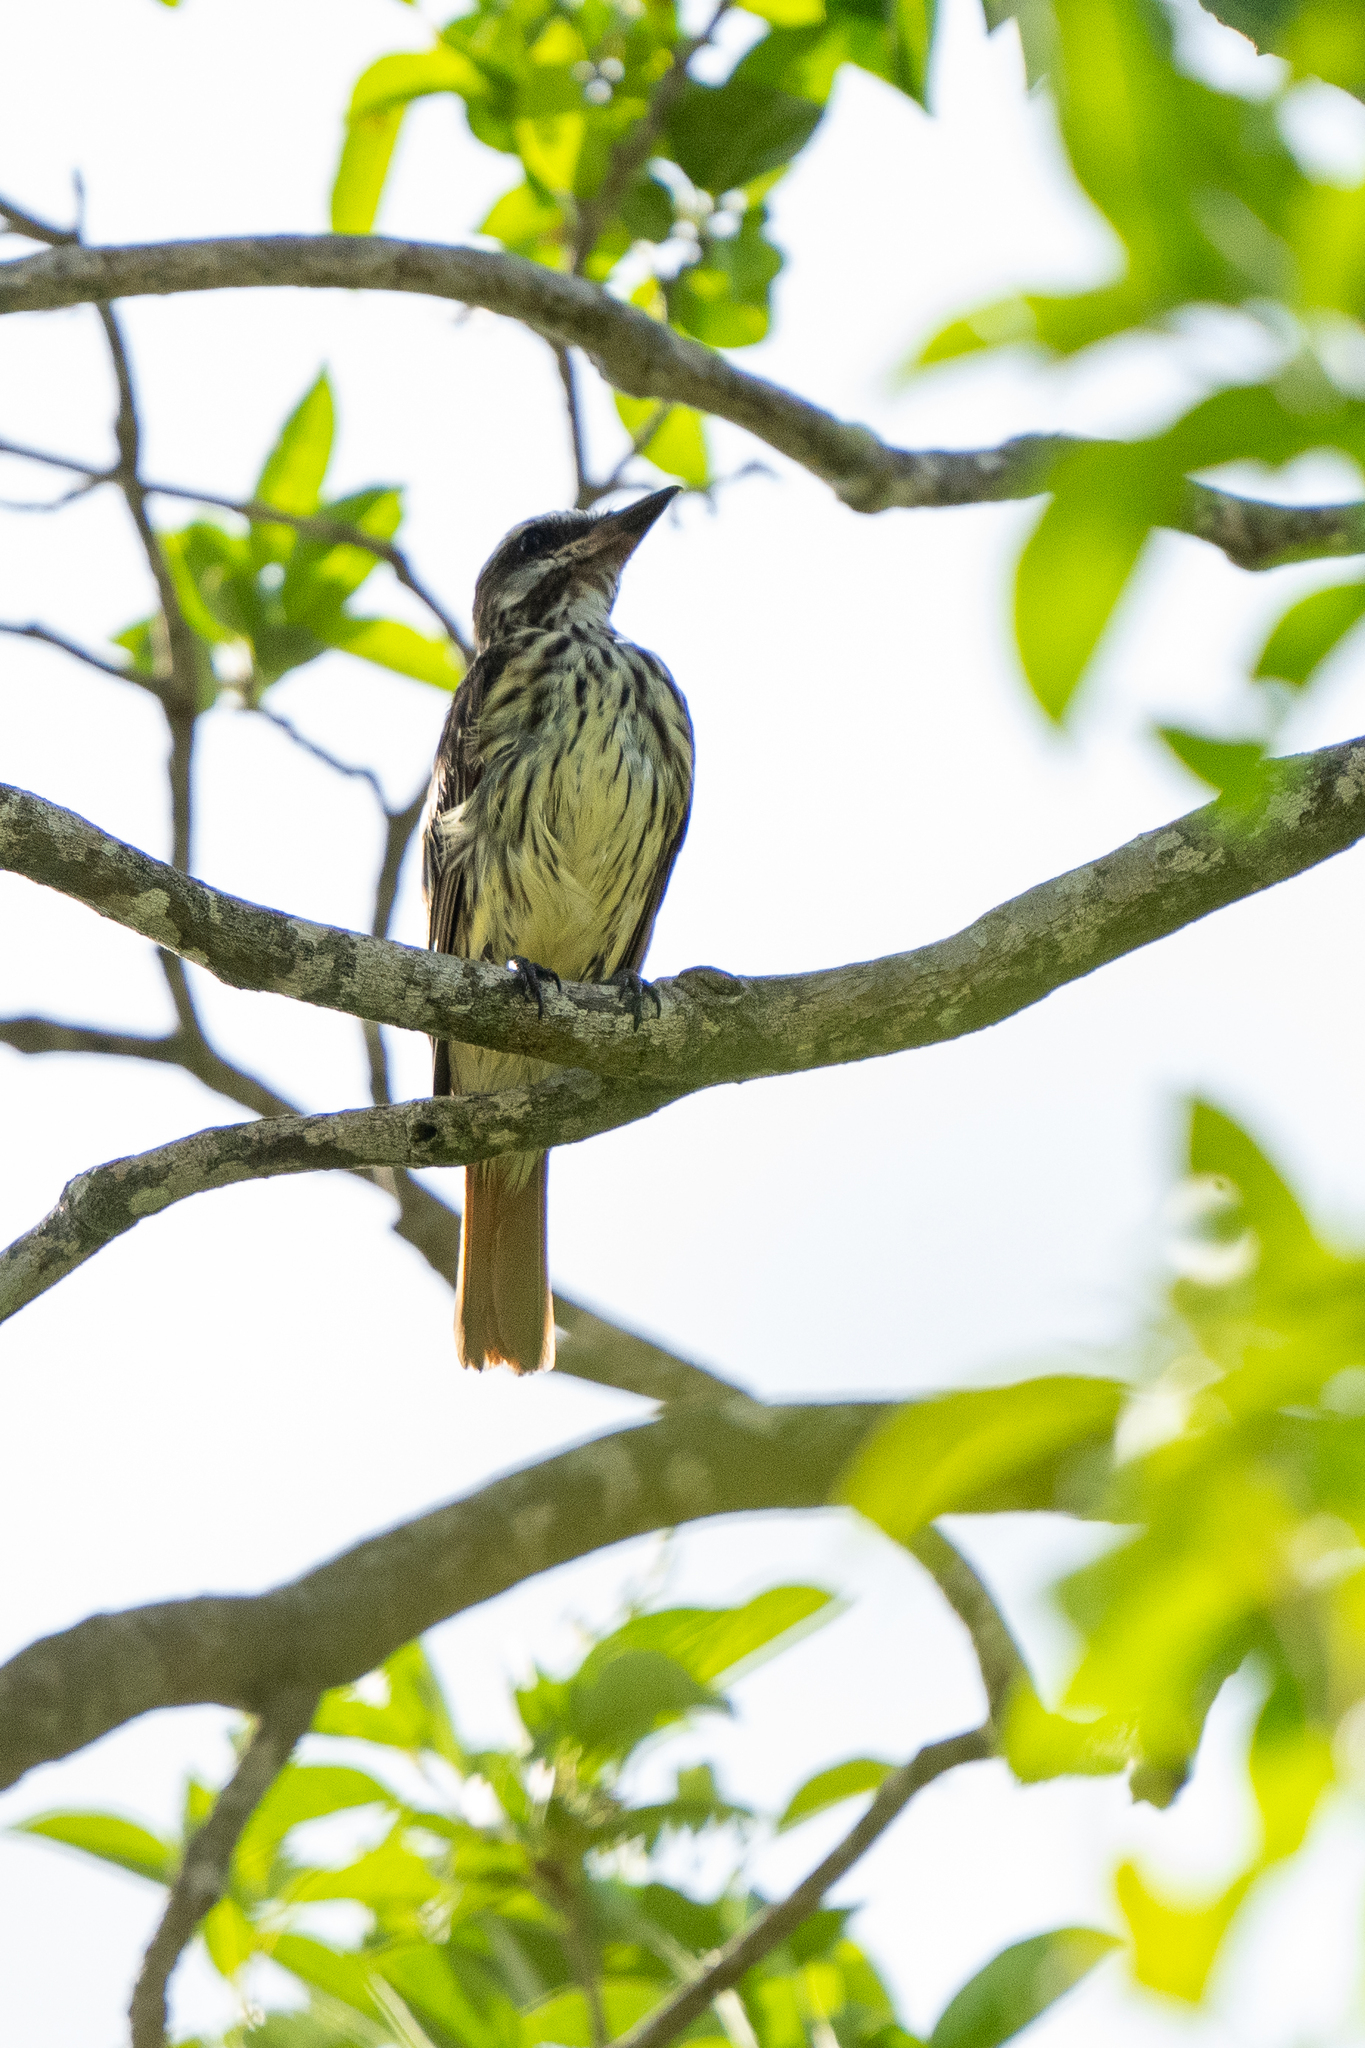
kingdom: Animalia
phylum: Chordata
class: Aves
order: Passeriformes
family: Tyrannidae
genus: Myiodynastes
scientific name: Myiodynastes luteiventris
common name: Sulphur-bellied flycatcher
